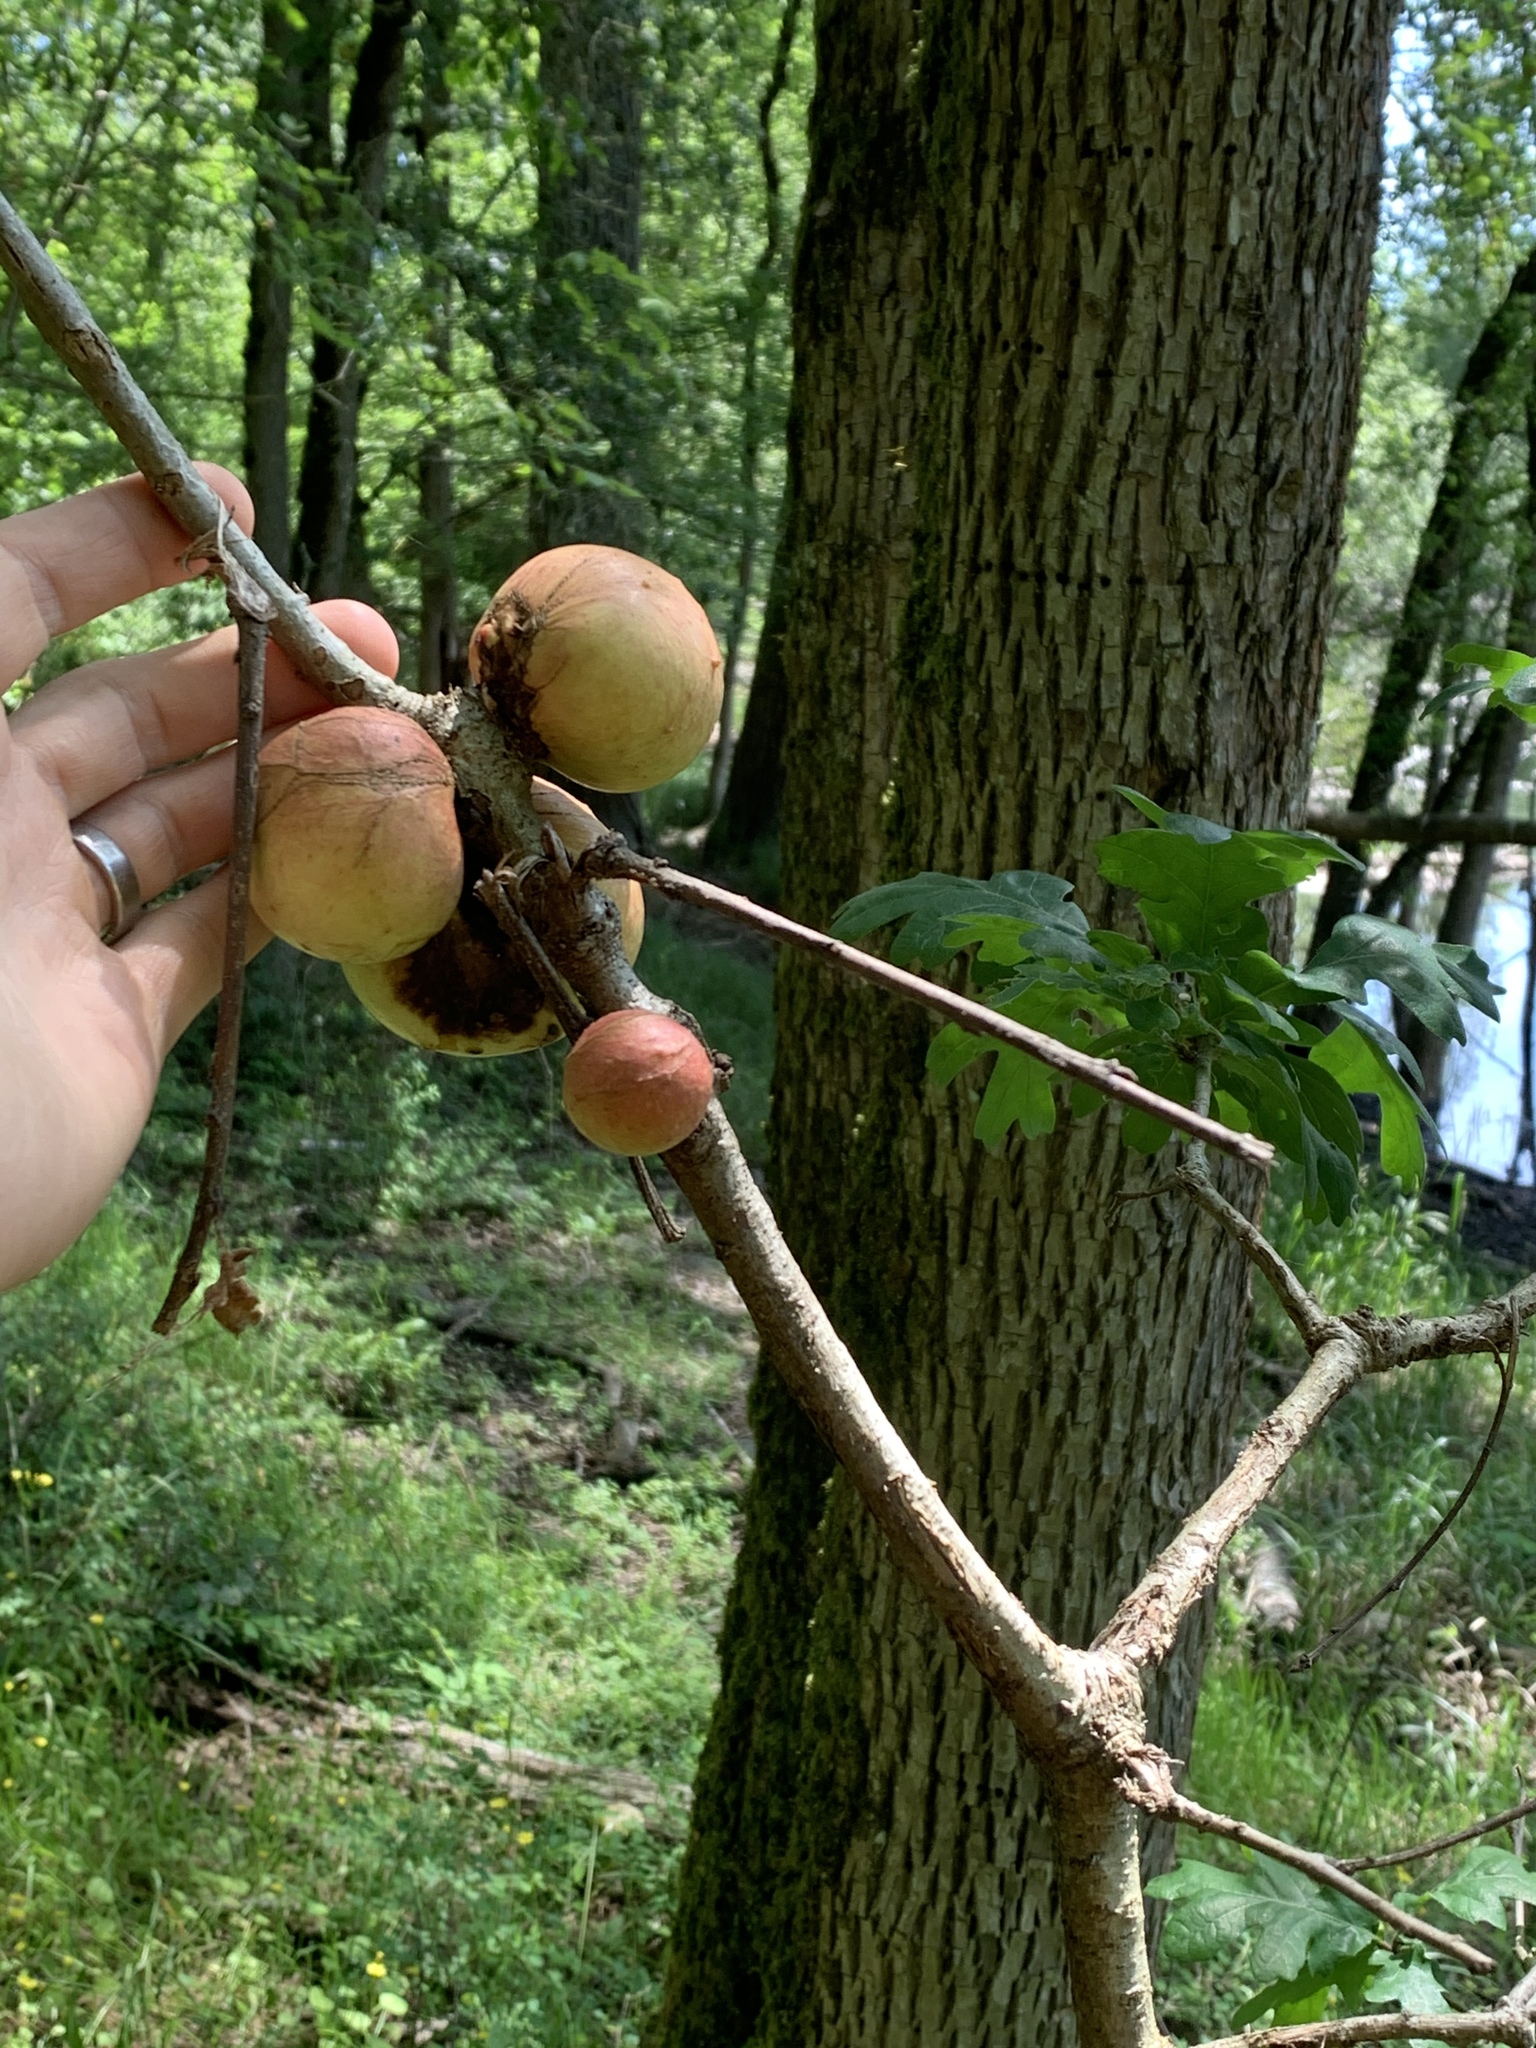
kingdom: Animalia
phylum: Arthropoda
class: Insecta
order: Hymenoptera
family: Cynipidae
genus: Andricus
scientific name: Andricus quercuscalifornicus
